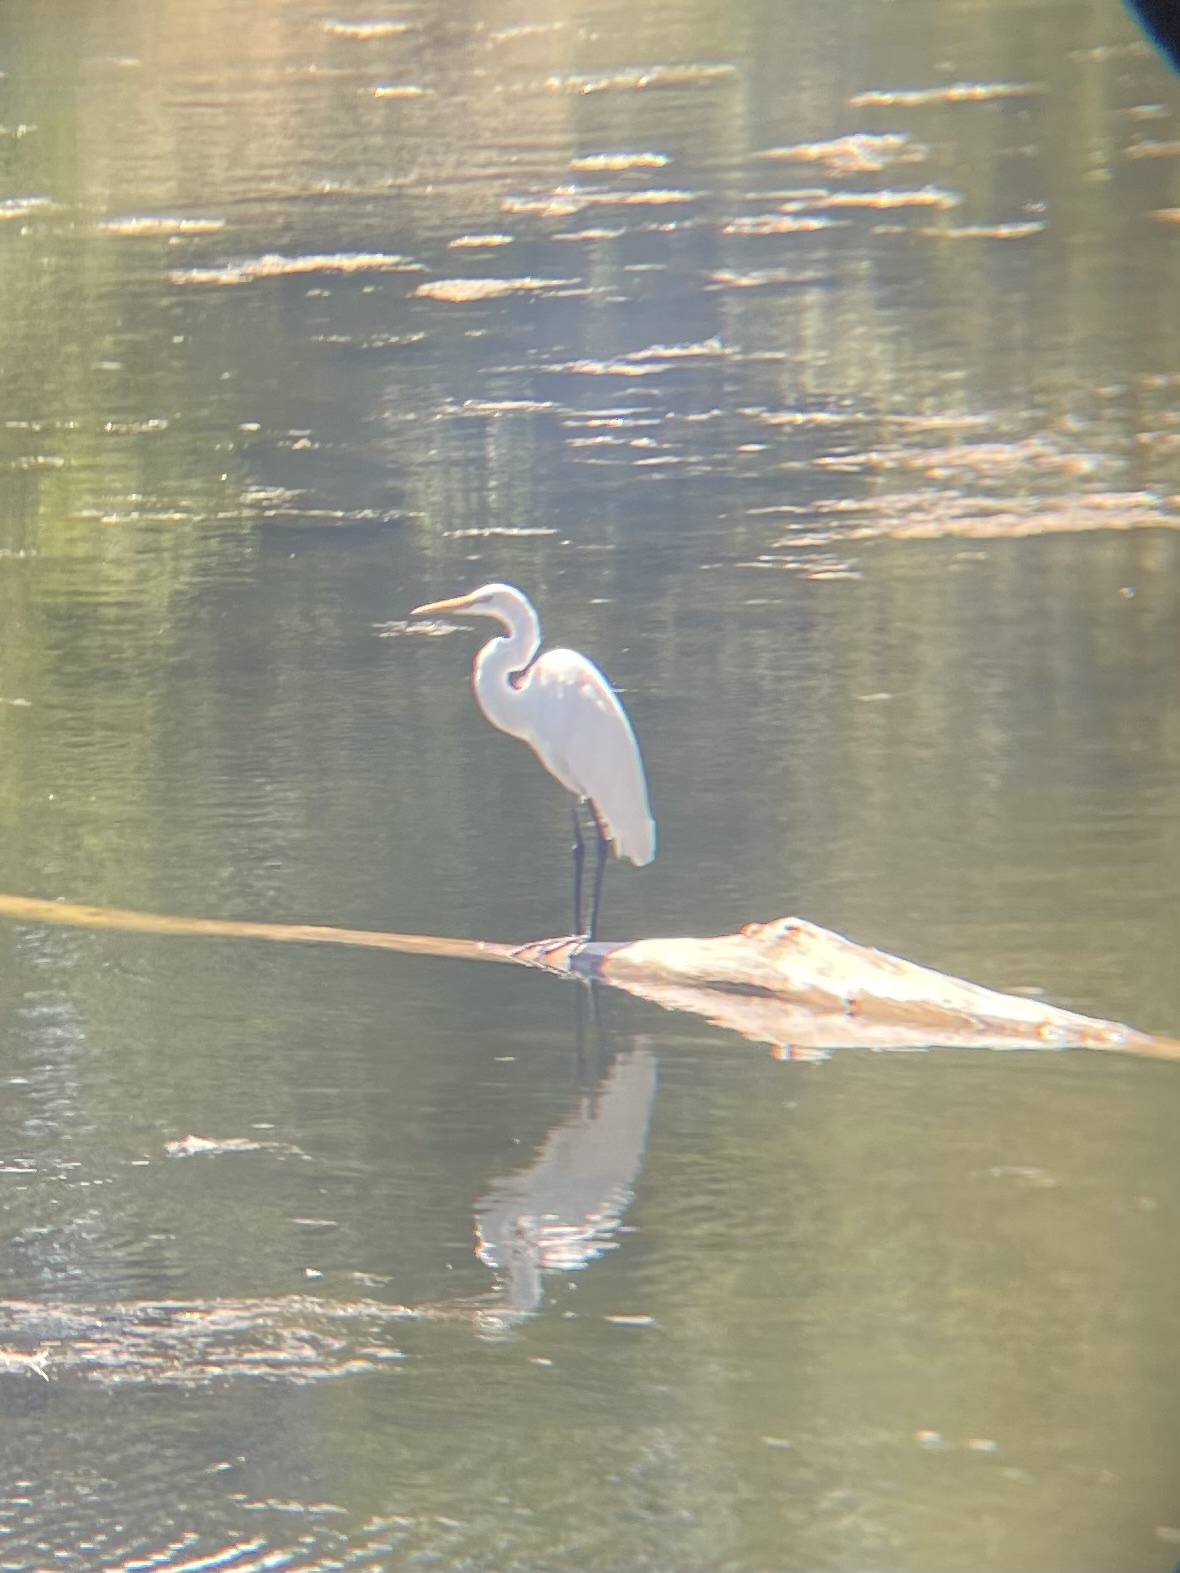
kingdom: Animalia
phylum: Chordata
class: Aves
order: Pelecaniformes
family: Ardeidae
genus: Ardea
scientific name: Ardea alba
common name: Great egret
